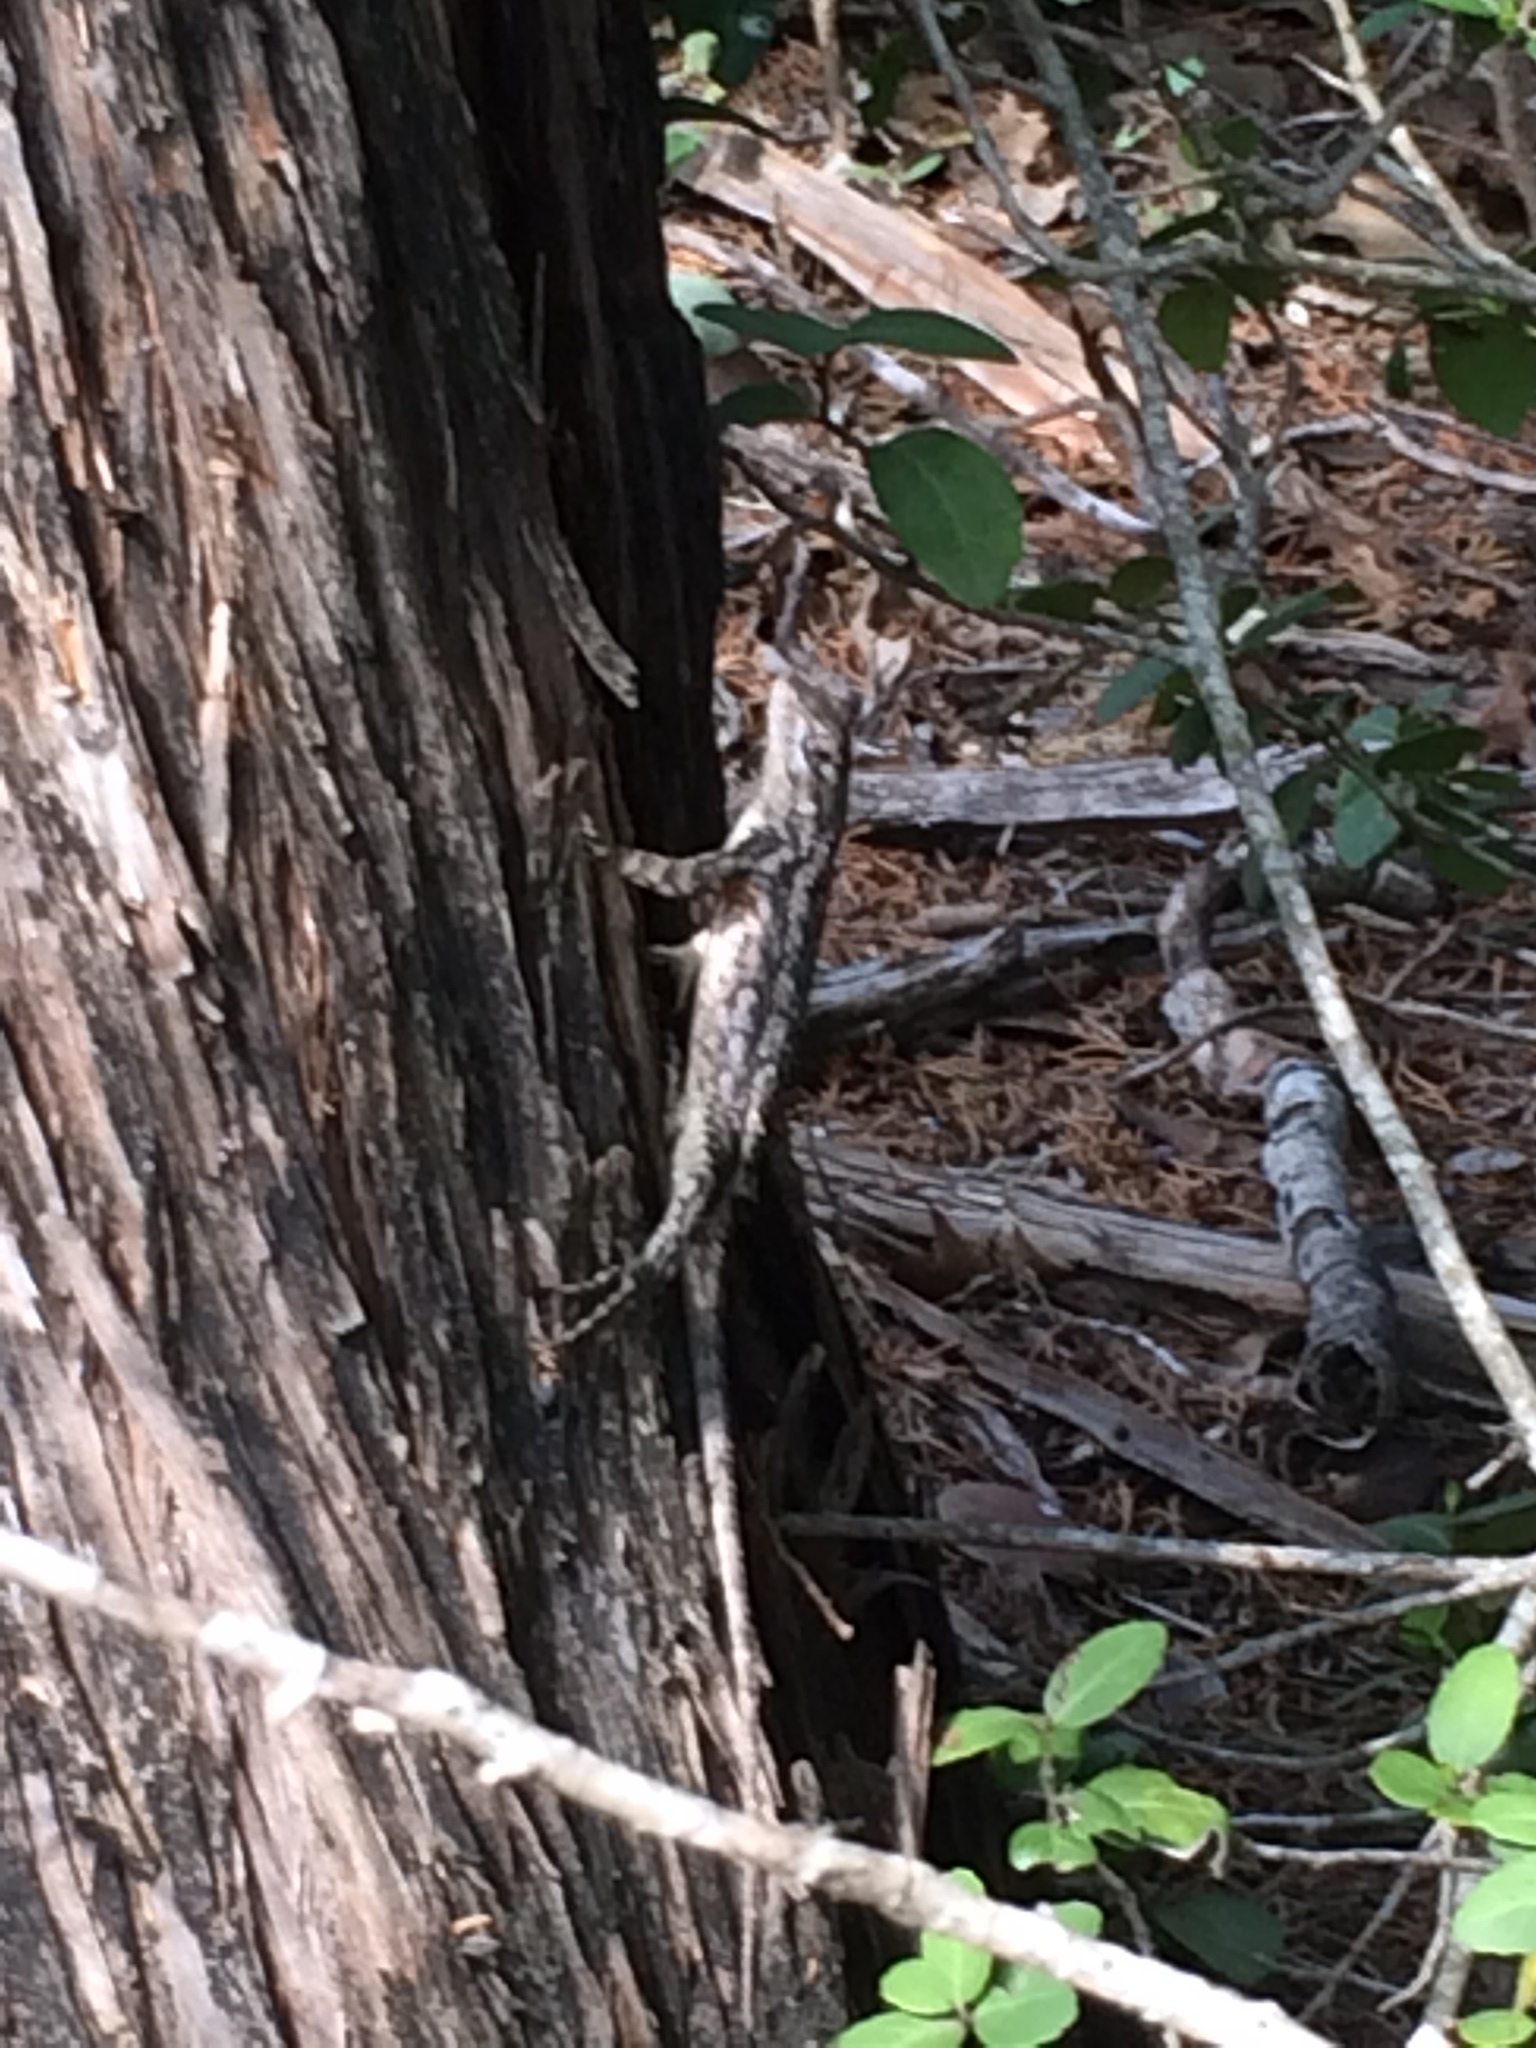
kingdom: Animalia
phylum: Chordata
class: Squamata
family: Phrynosomatidae
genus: Sceloporus
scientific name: Sceloporus olivaceus
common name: Texas spiny lizard
